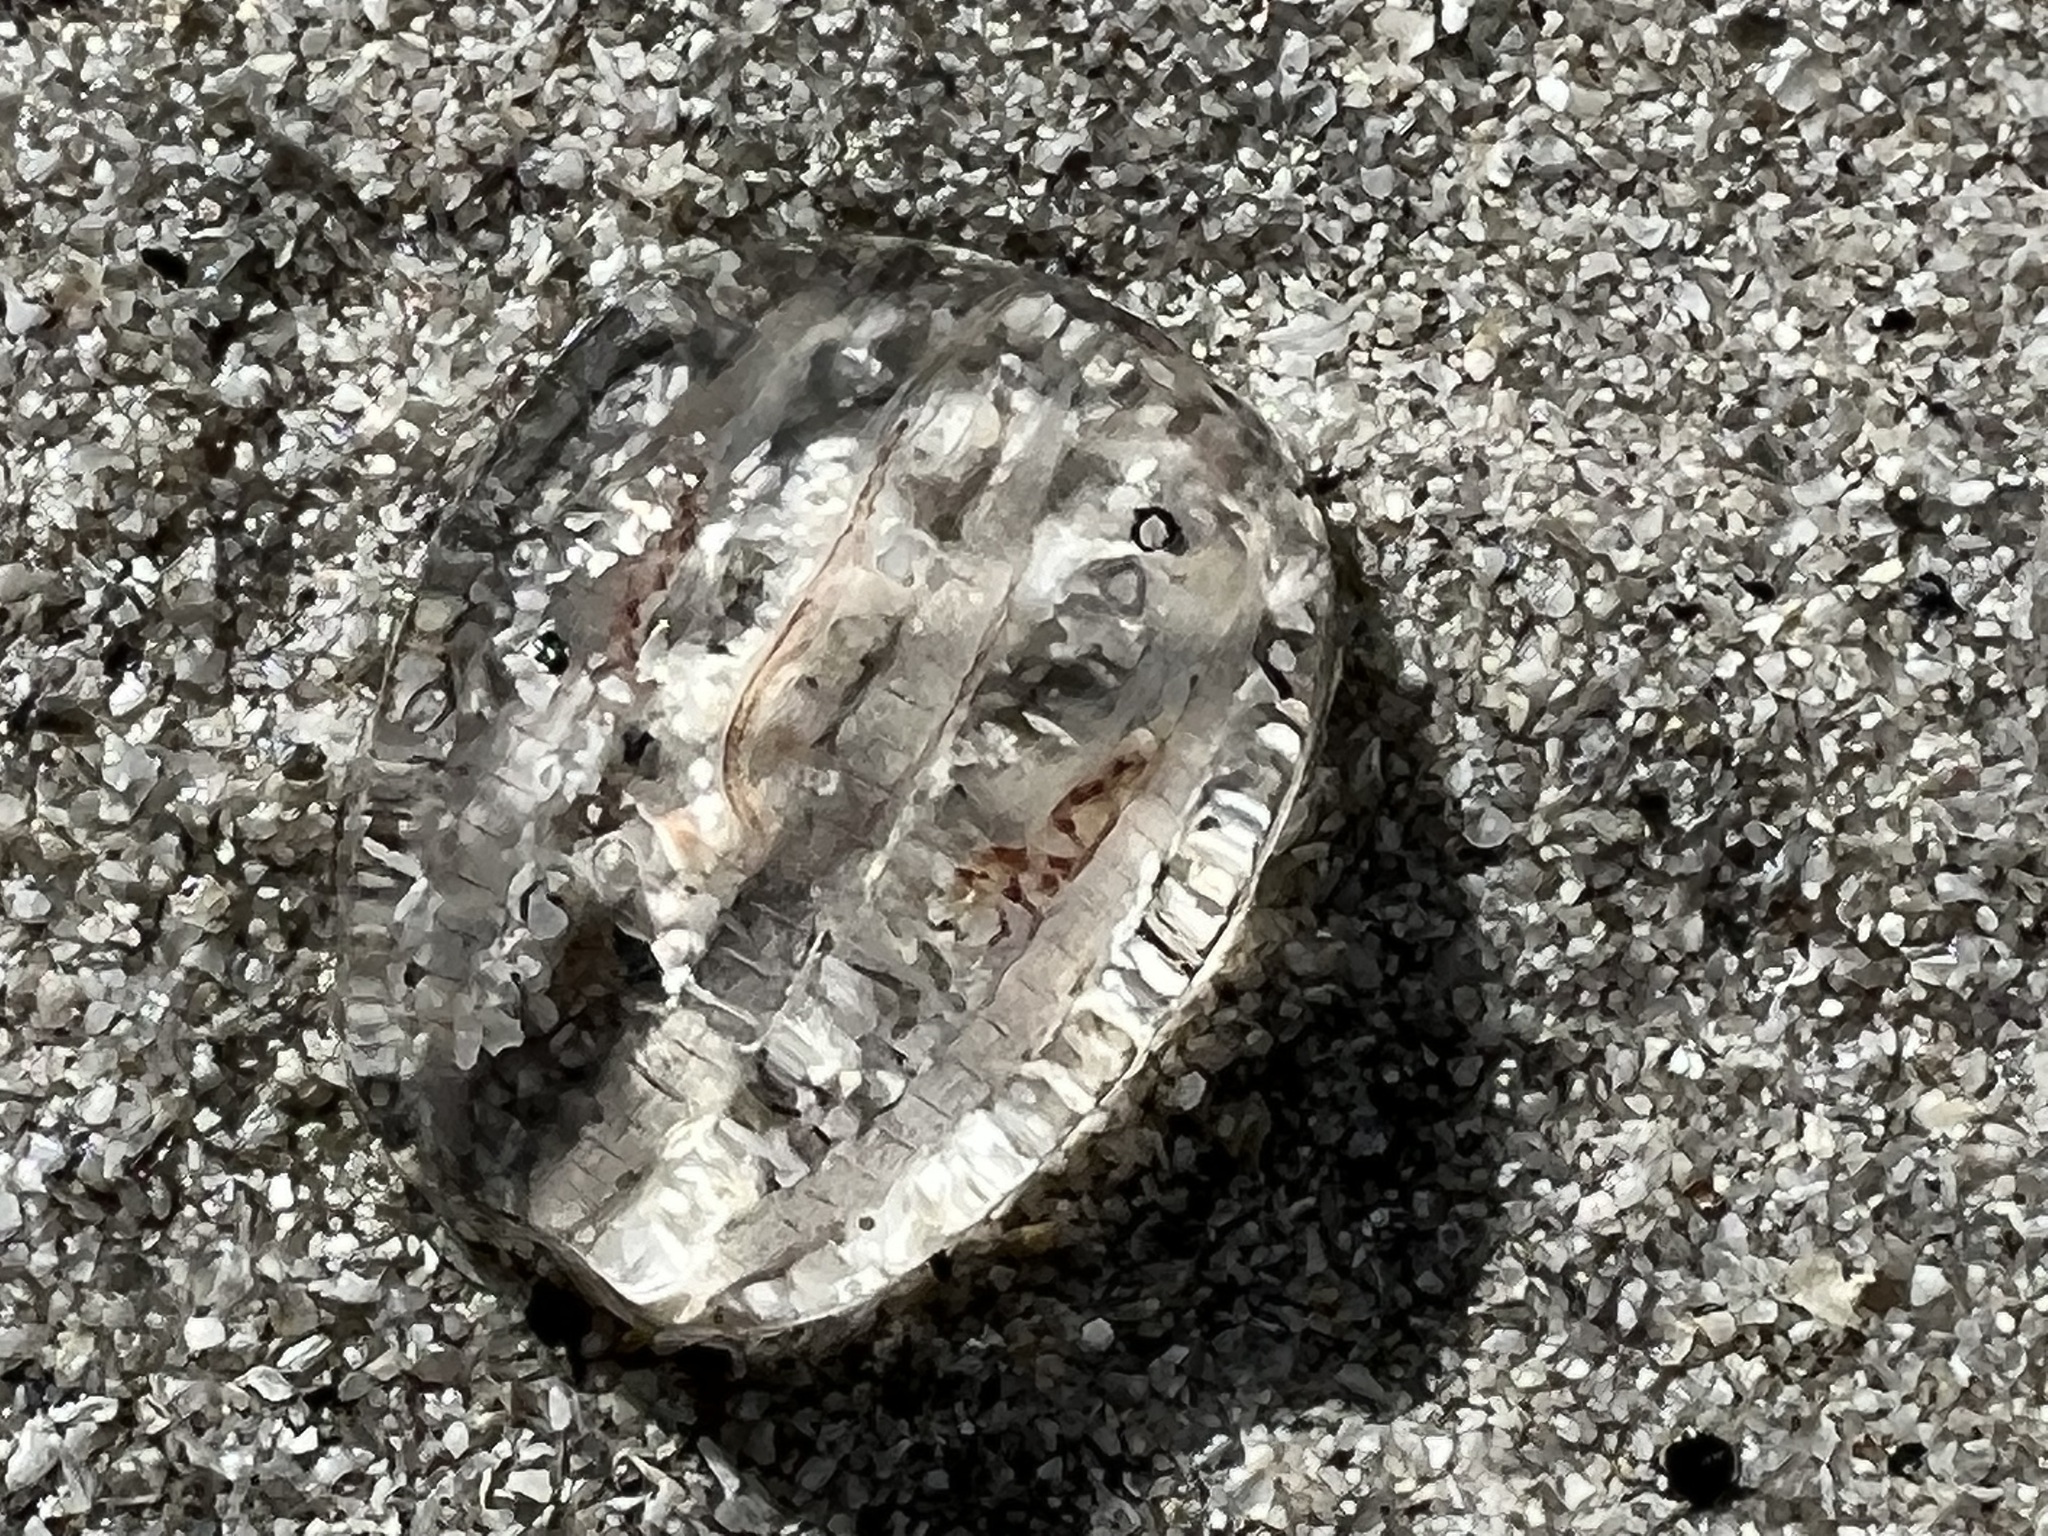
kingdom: Animalia
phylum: Ctenophora
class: Tentaculata
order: Cydippida
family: Pleurobrachiidae
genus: Pleurobrachia
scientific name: Pleurobrachia pileus
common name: Sea gooseberry
